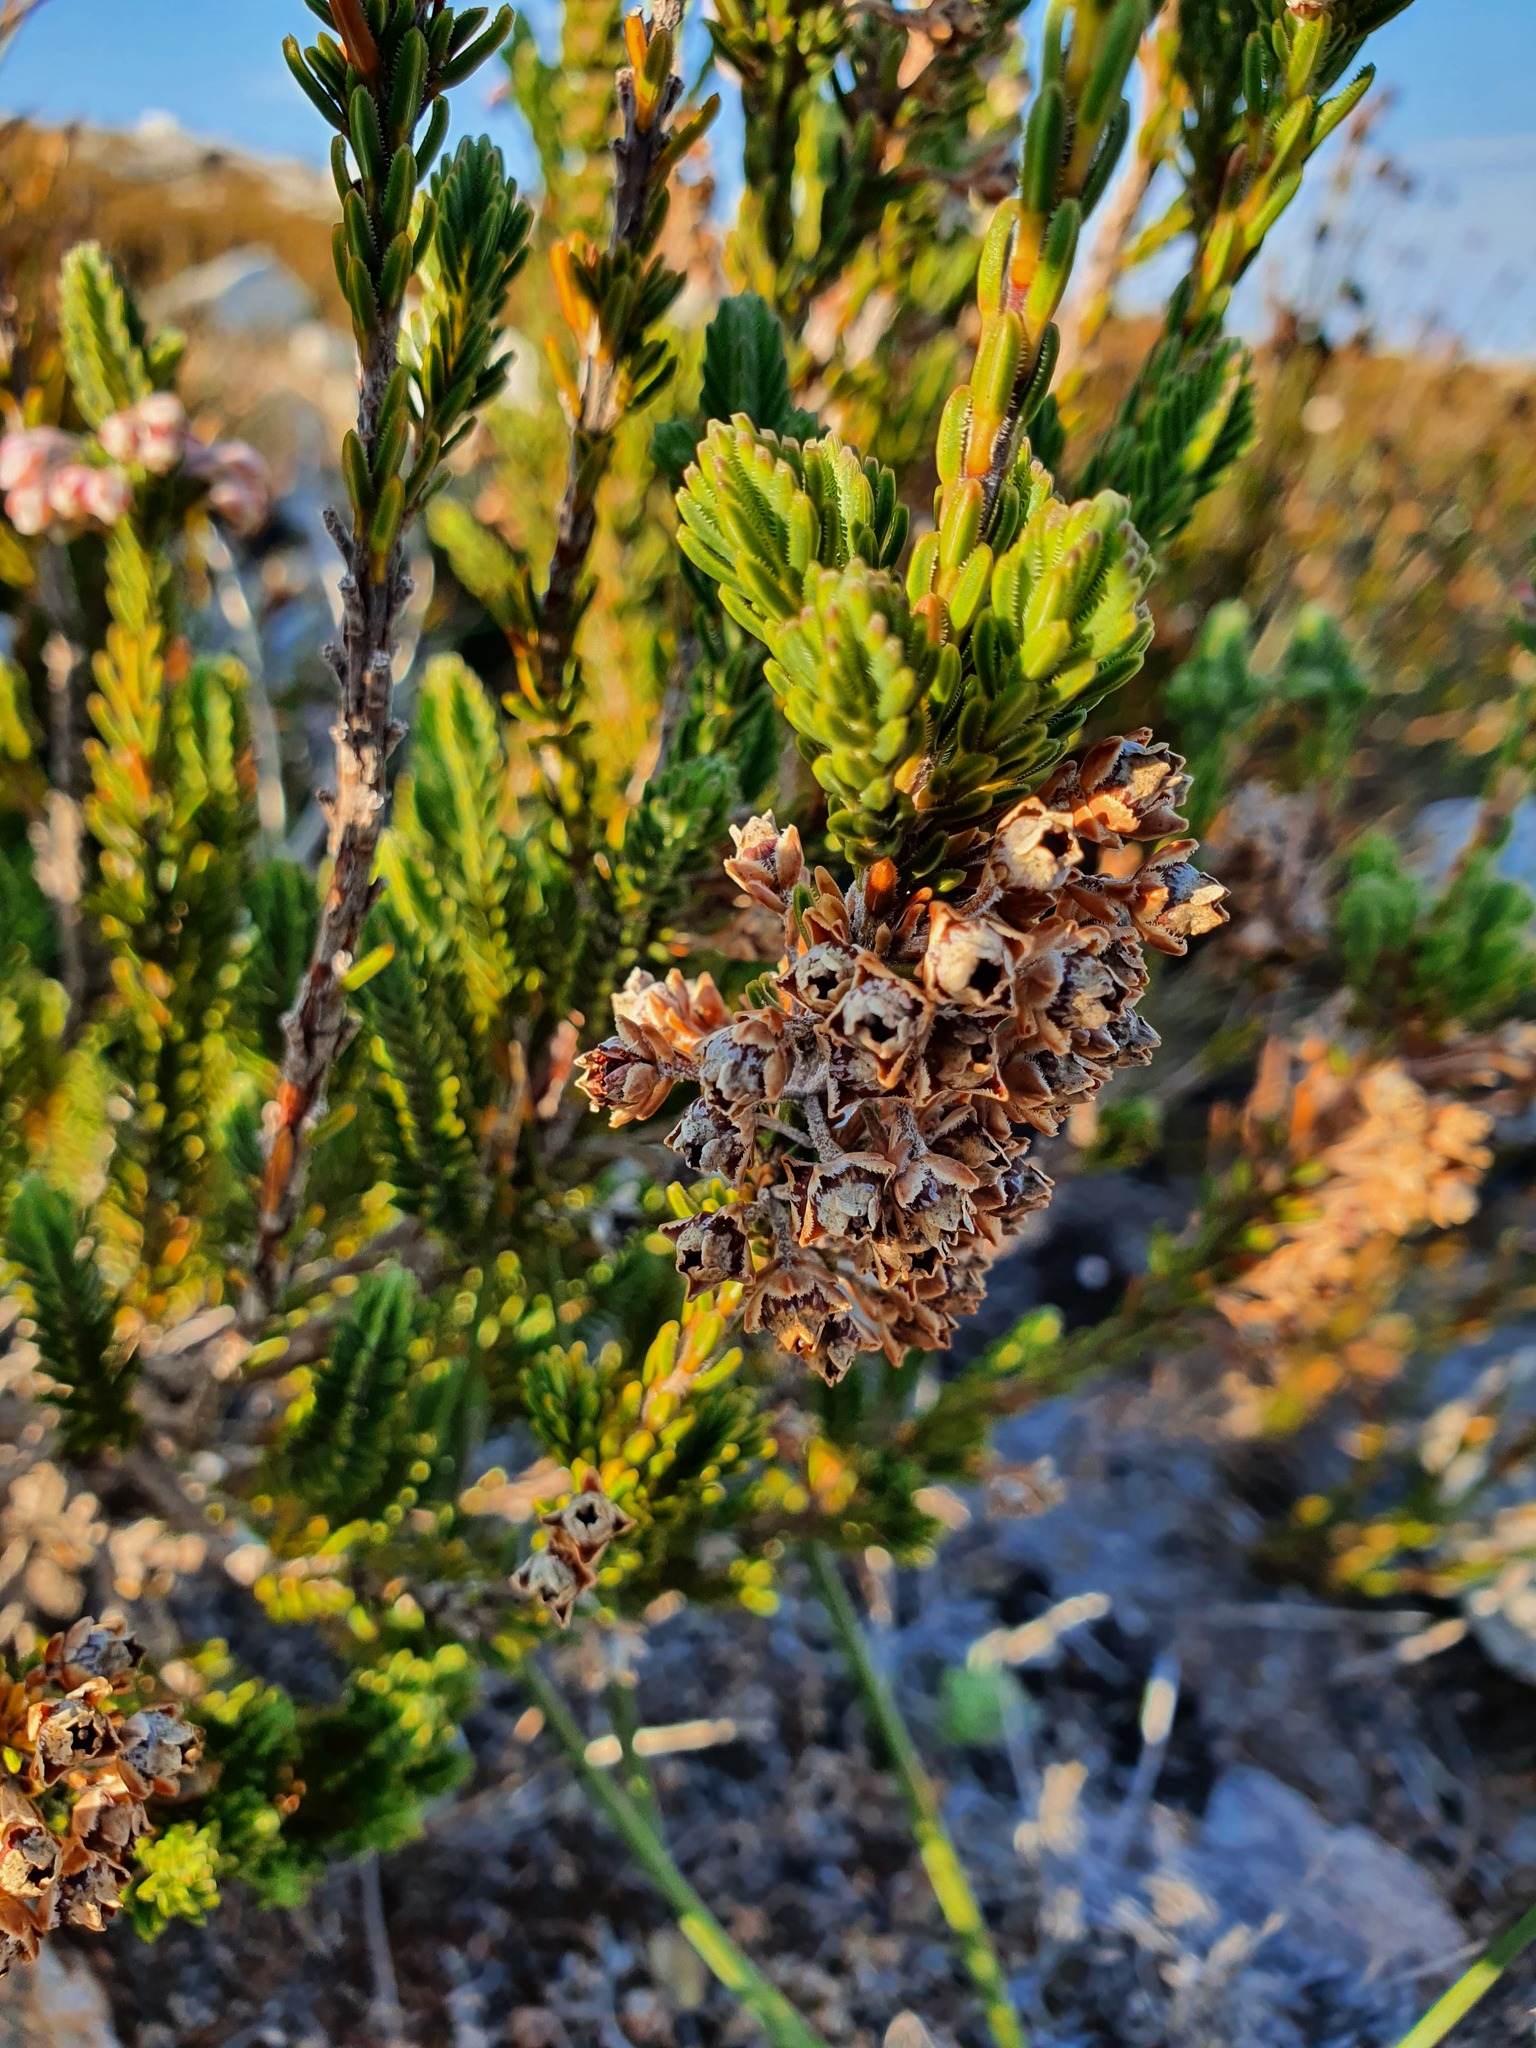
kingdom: Plantae
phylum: Tracheophyta
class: Magnoliopsida
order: Ericales
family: Ericaceae
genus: Erica
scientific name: Erica goatcheriana
